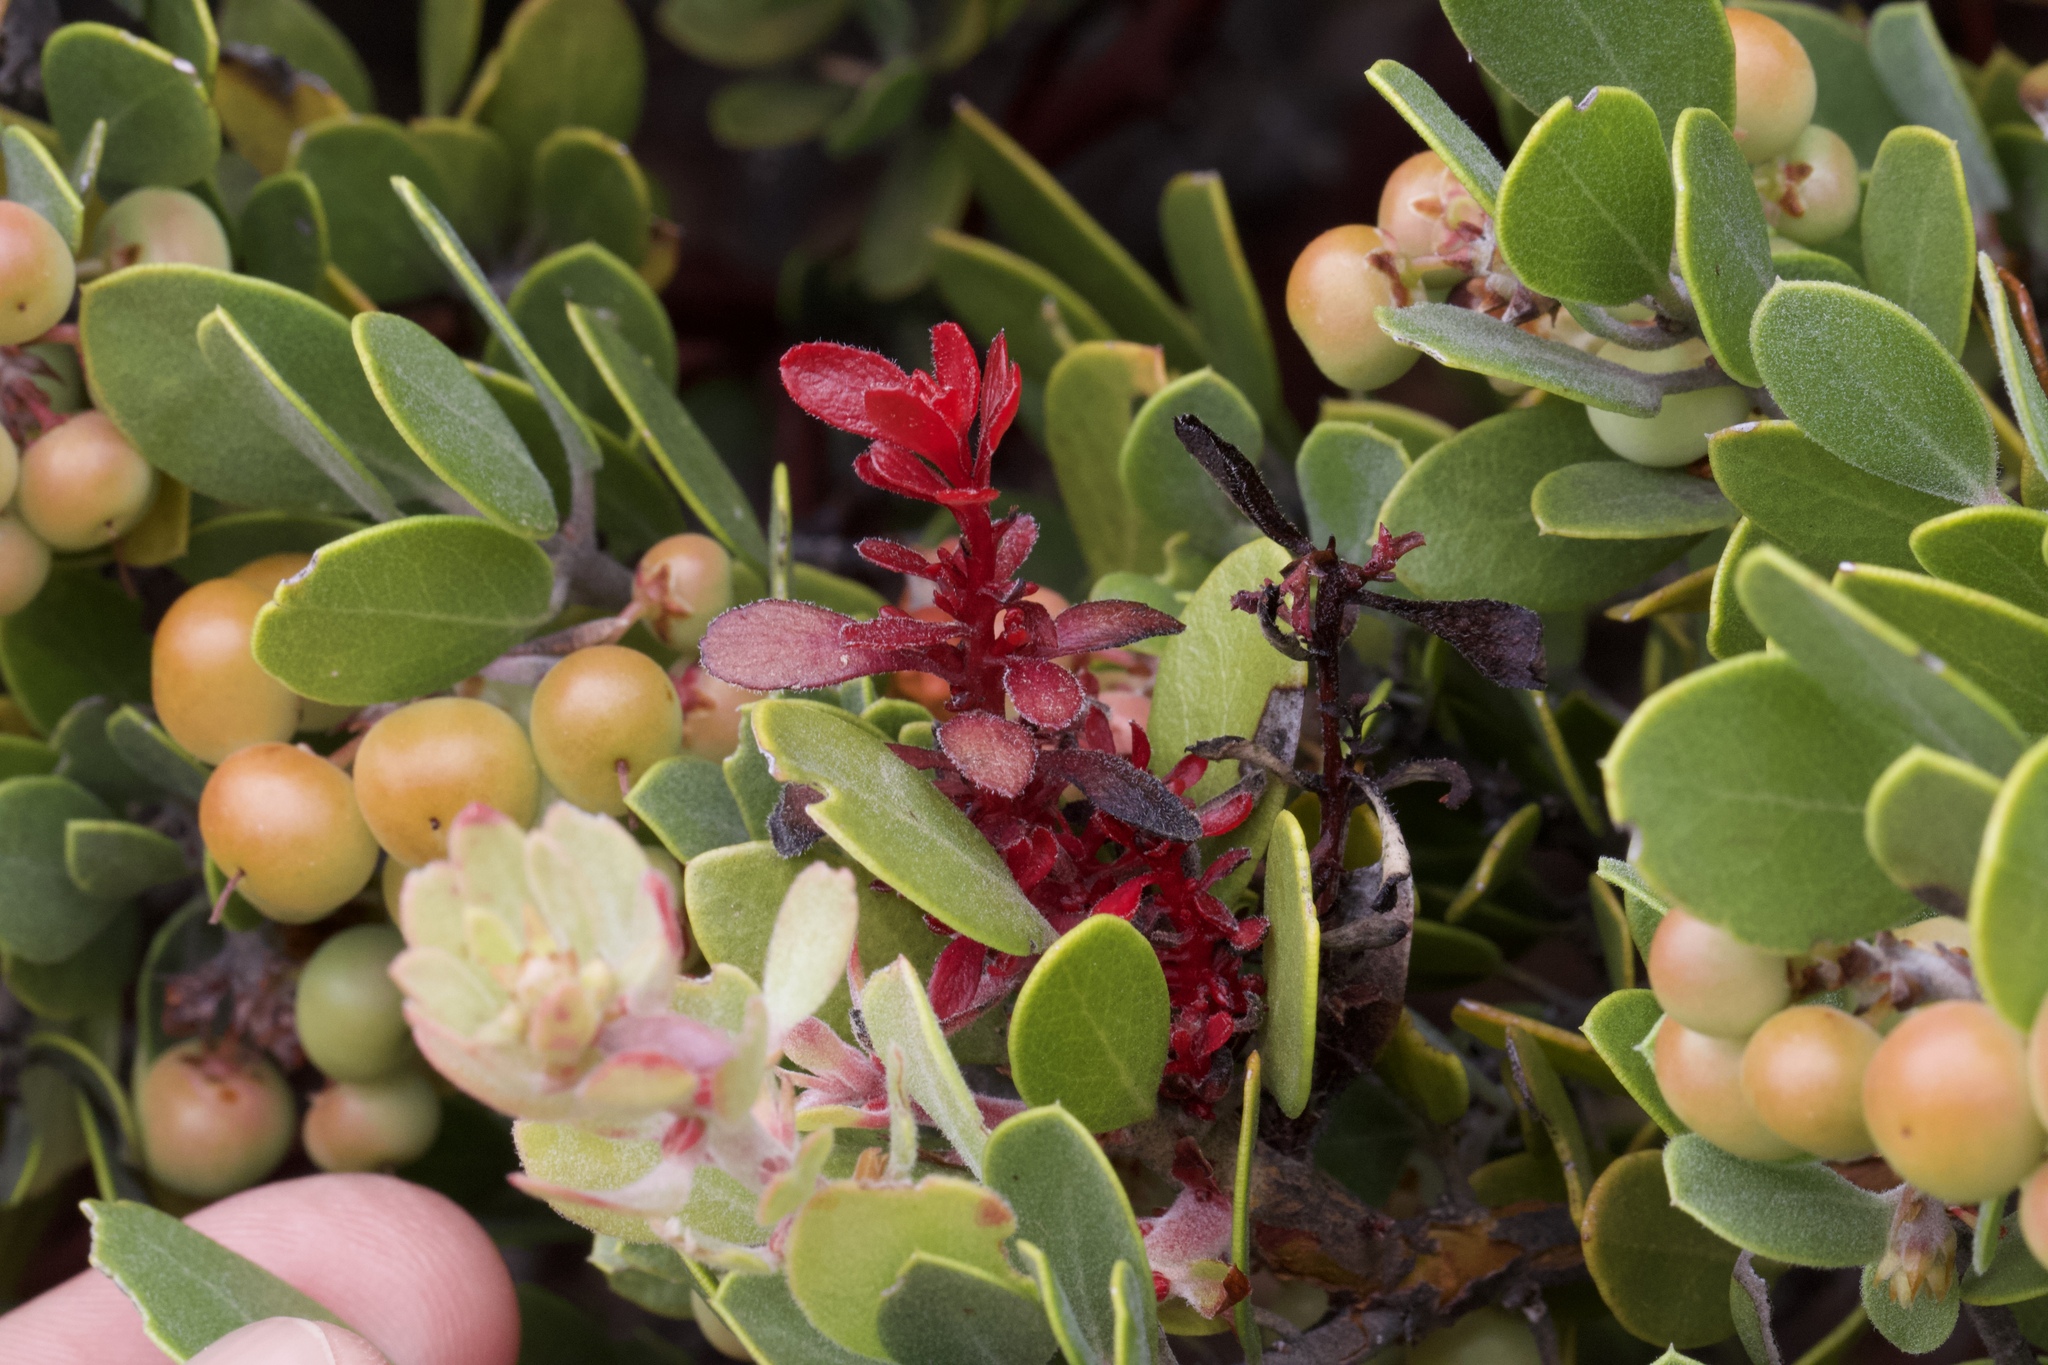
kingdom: Fungi
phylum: Basidiomycota
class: Exobasidiomycetes
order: Exobasidiales
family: Exobasidiaceae
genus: Exobasidium
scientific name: Exobasidium
